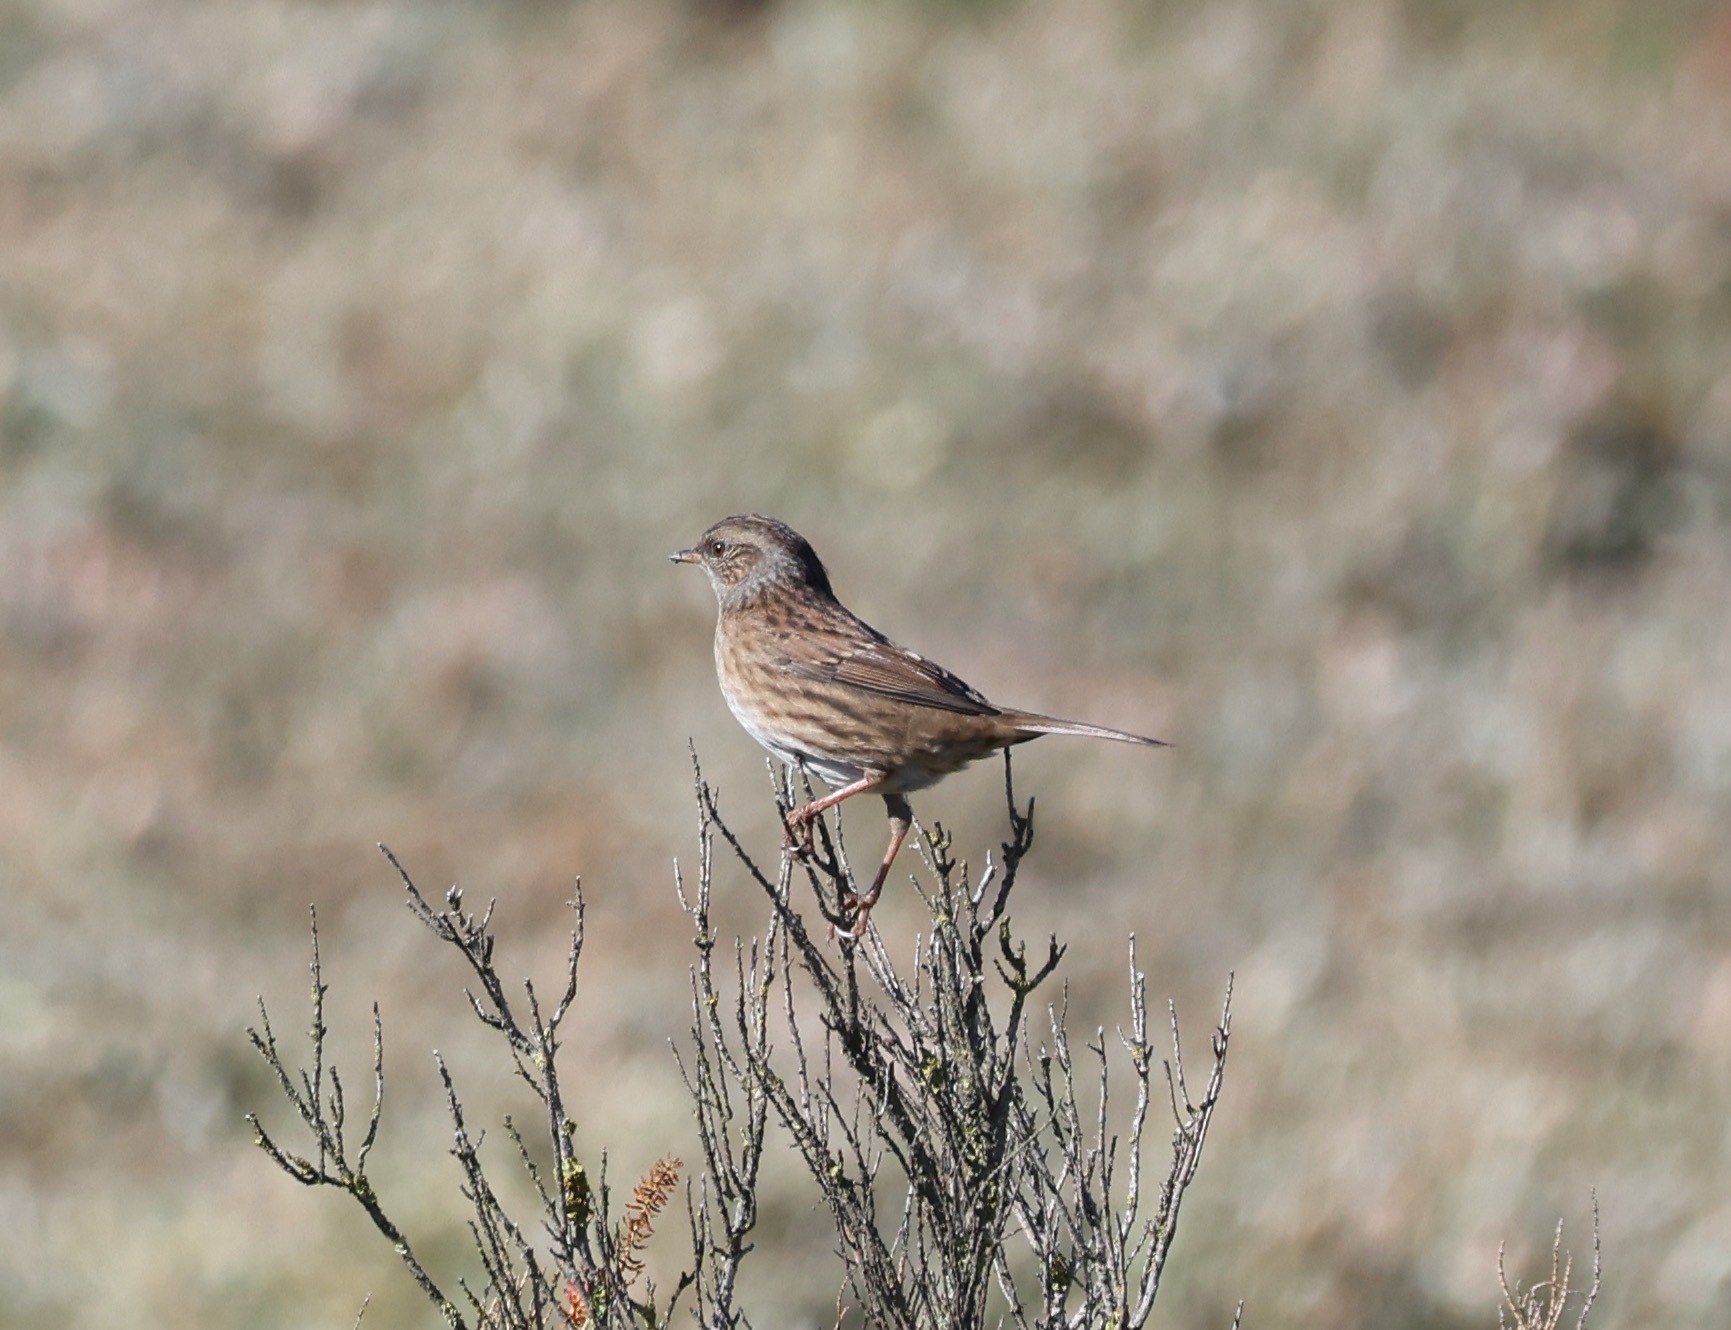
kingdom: Animalia
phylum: Chordata
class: Aves
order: Passeriformes
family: Prunellidae
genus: Prunella
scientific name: Prunella modularis
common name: Dunnock
